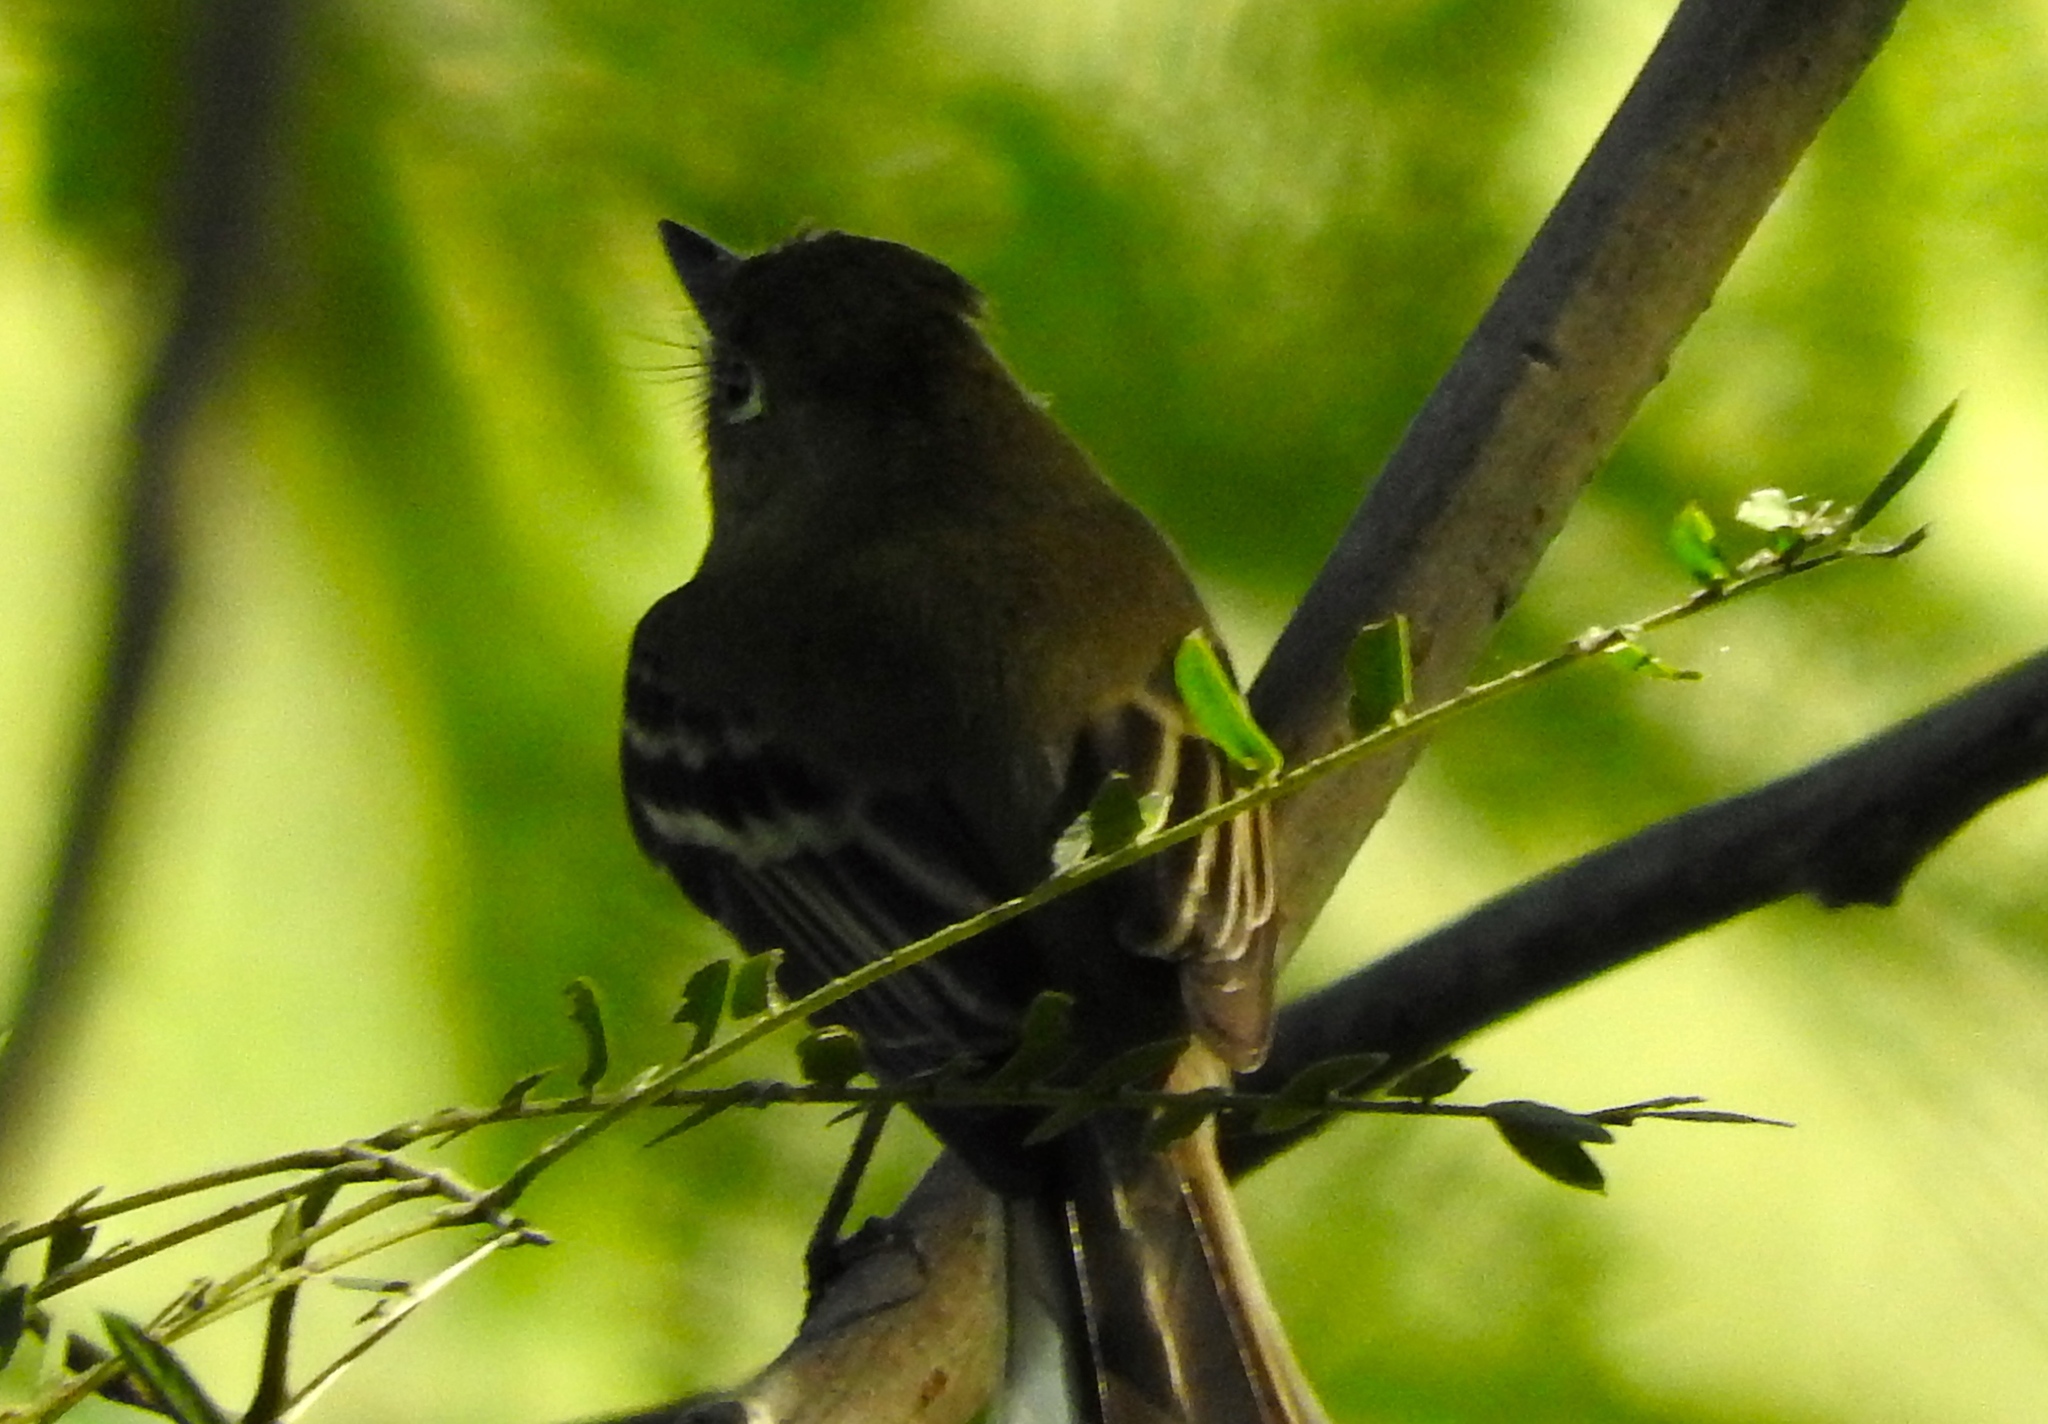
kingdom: Animalia
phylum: Chordata
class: Aves
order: Passeriformes
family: Tyrannidae
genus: Empidonax
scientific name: Empidonax
